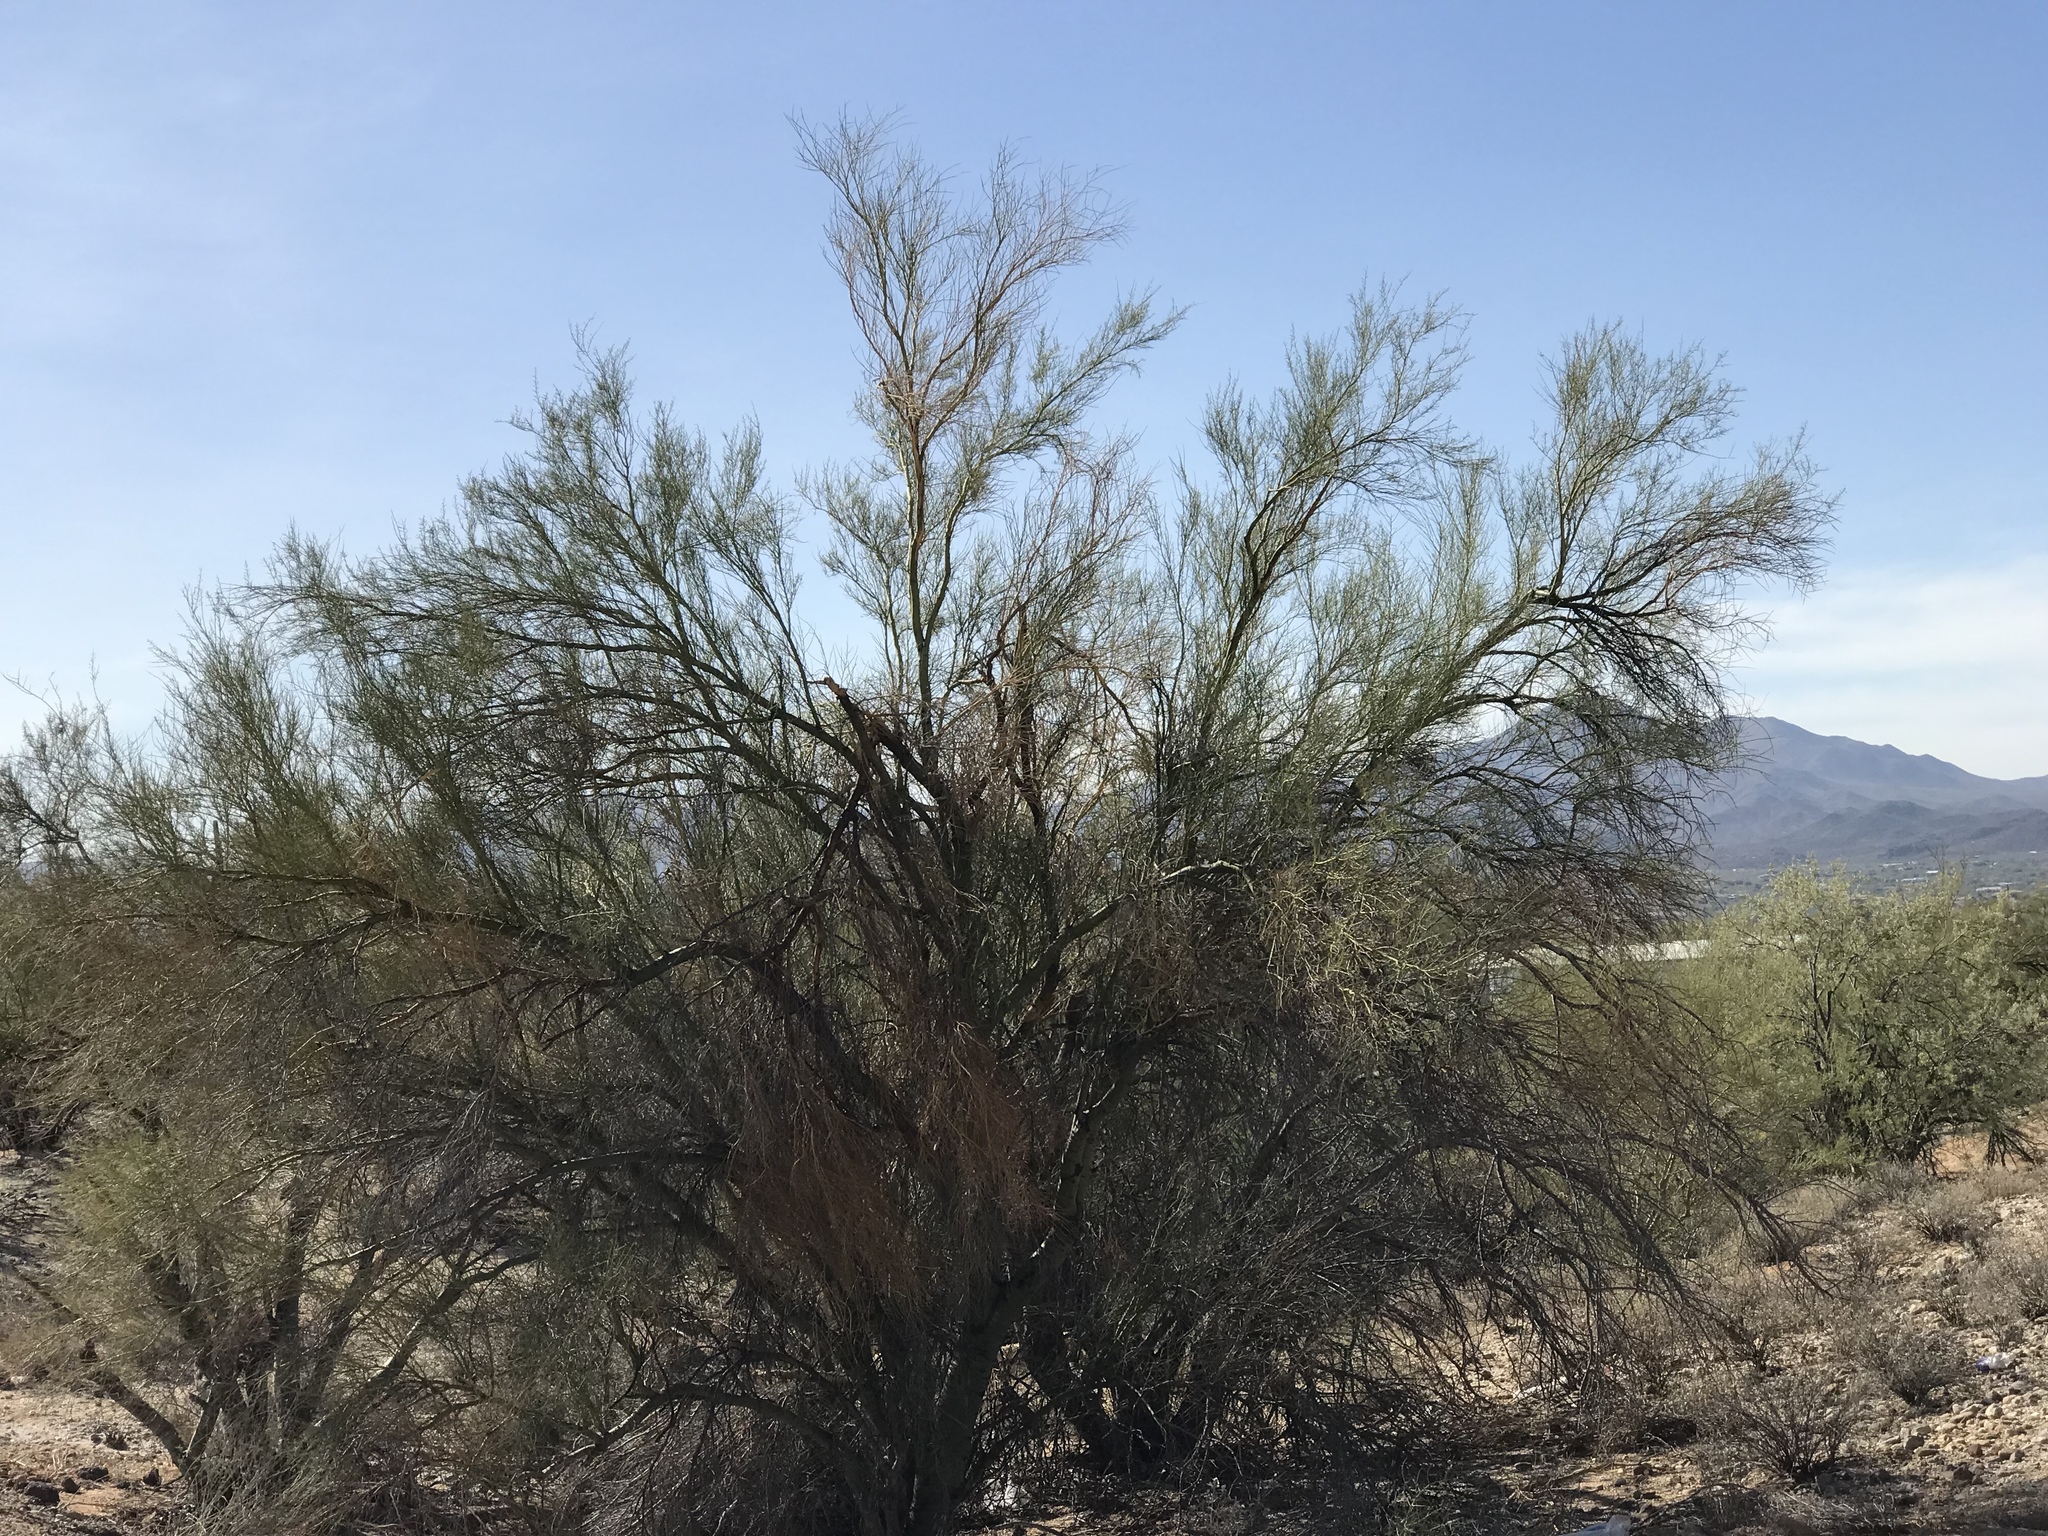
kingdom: Plantae
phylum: Tracheophyta
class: Magnoliopsida
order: Fabales
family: Fabaceae
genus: Parkinsonia
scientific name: Parkinsonia florida
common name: Blue paloverde
